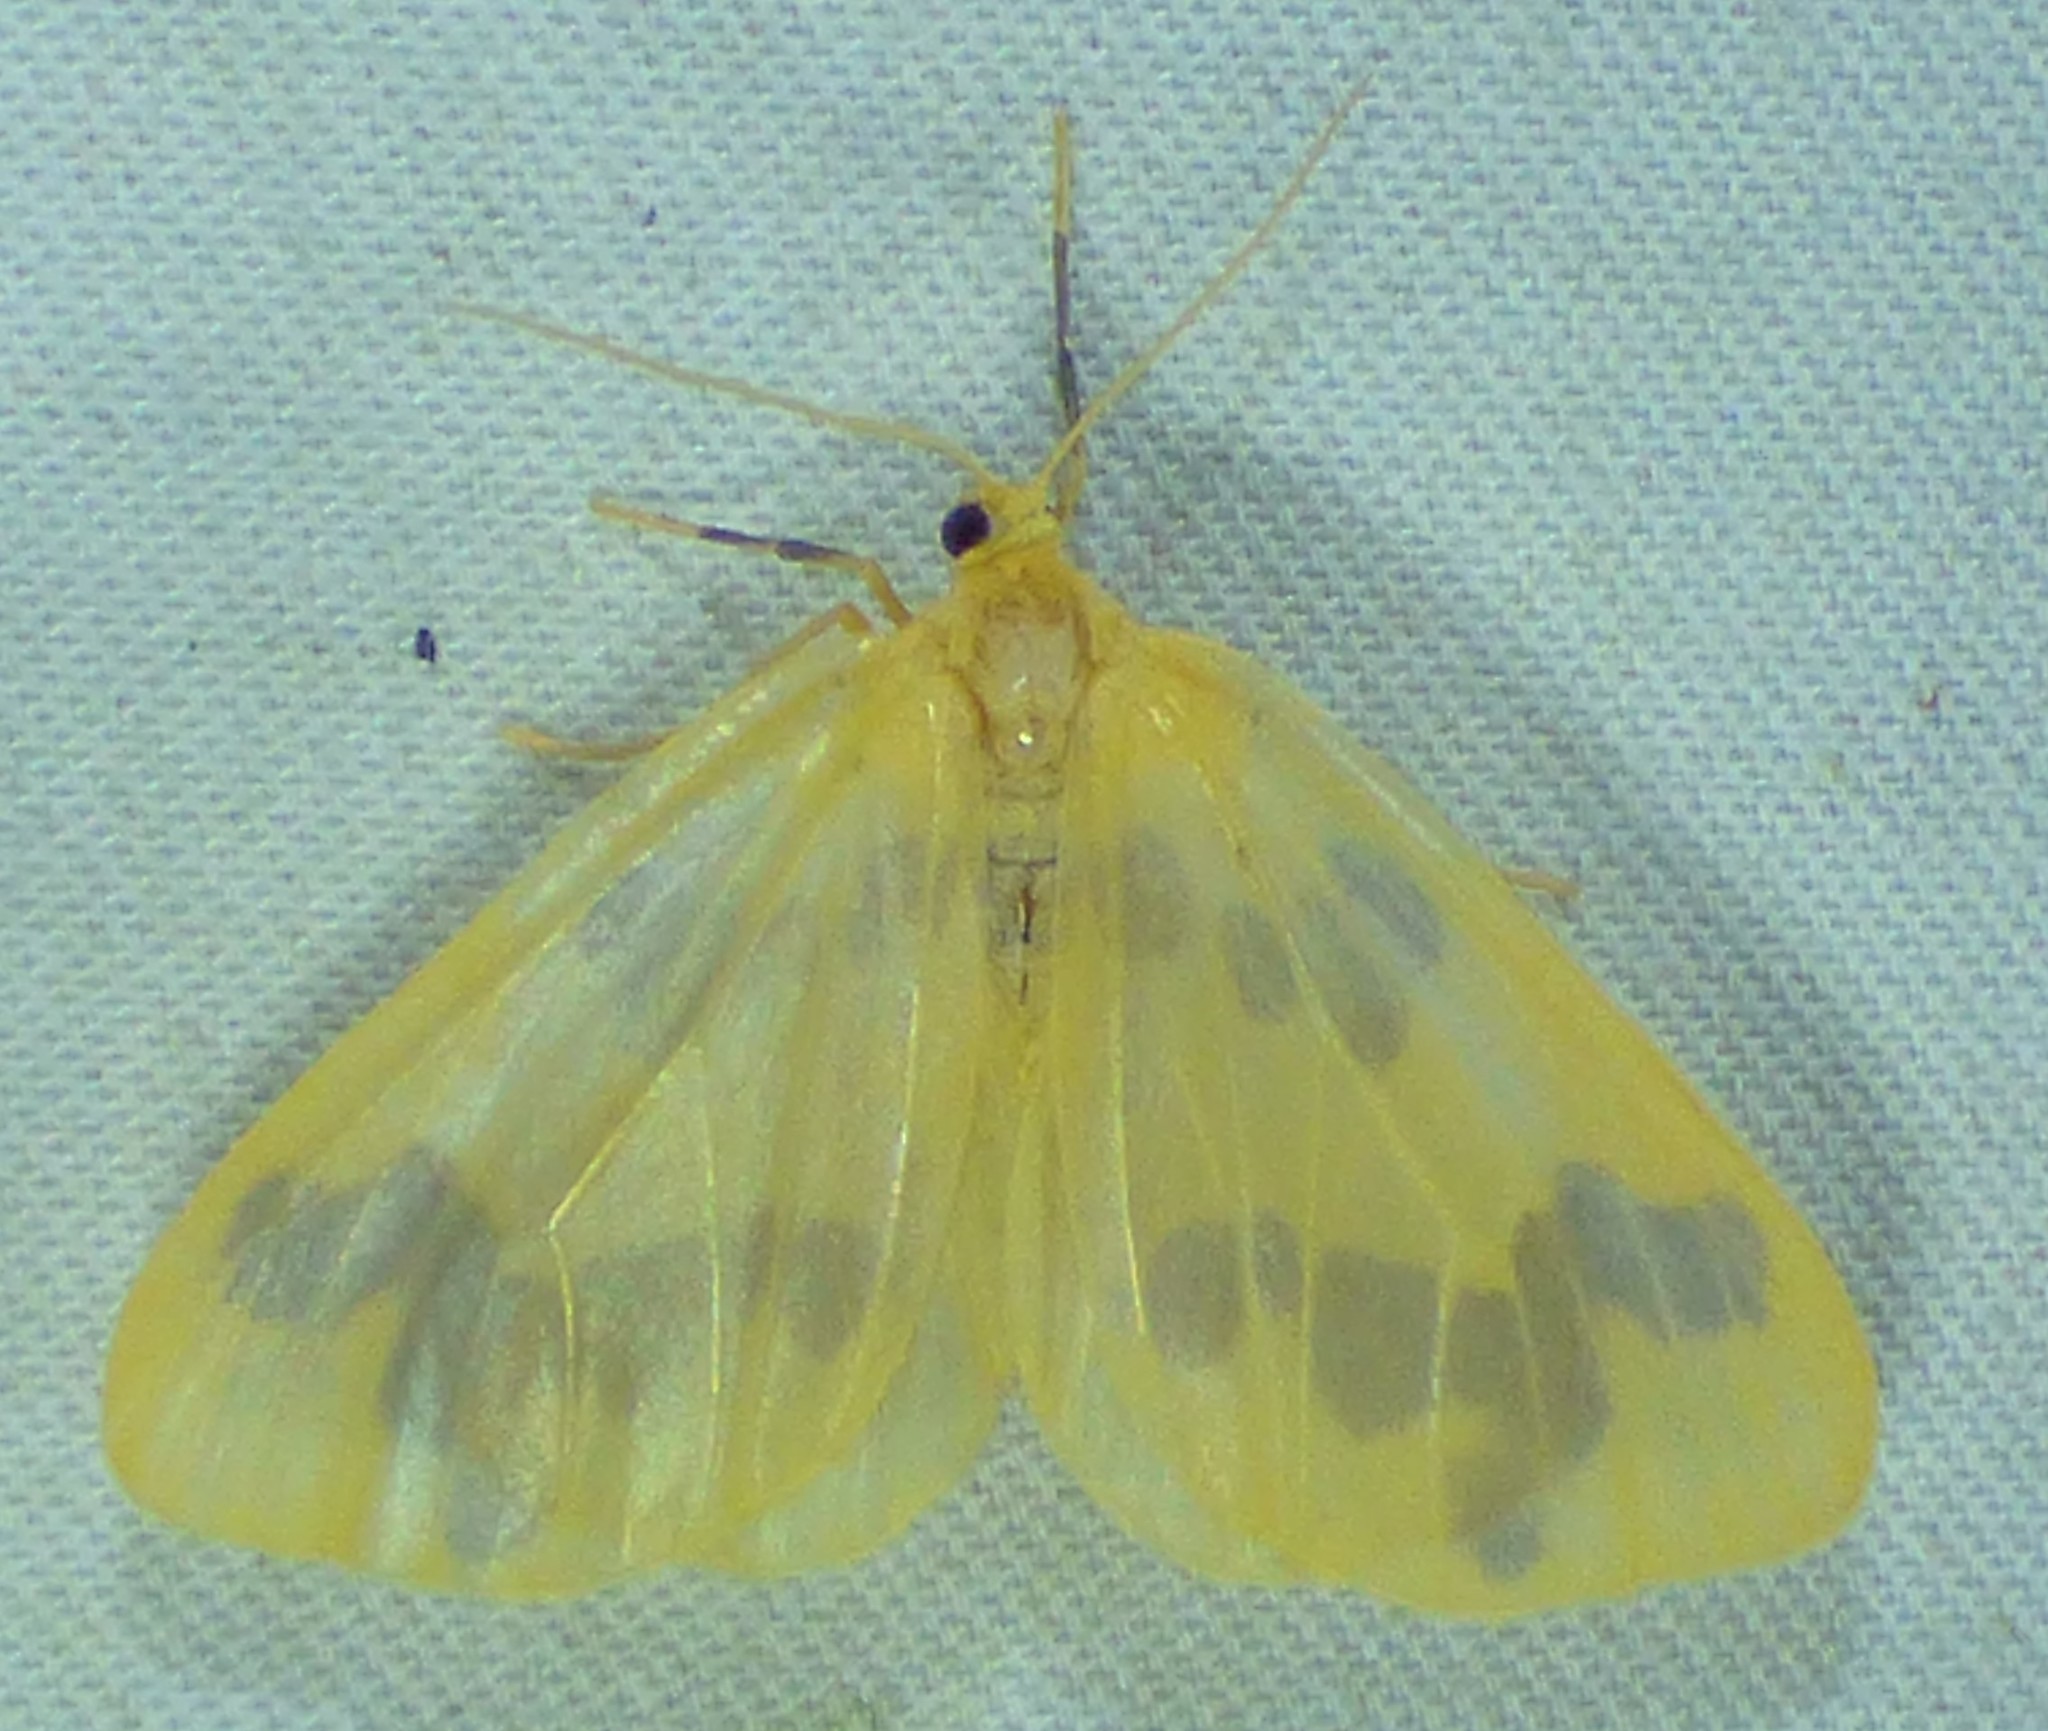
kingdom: Animalia
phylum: Arthropoda
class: Insecta
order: Lepidoptera
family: Geometridae
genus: Eubaphe
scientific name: Eubaphe mendica
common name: Beggar
